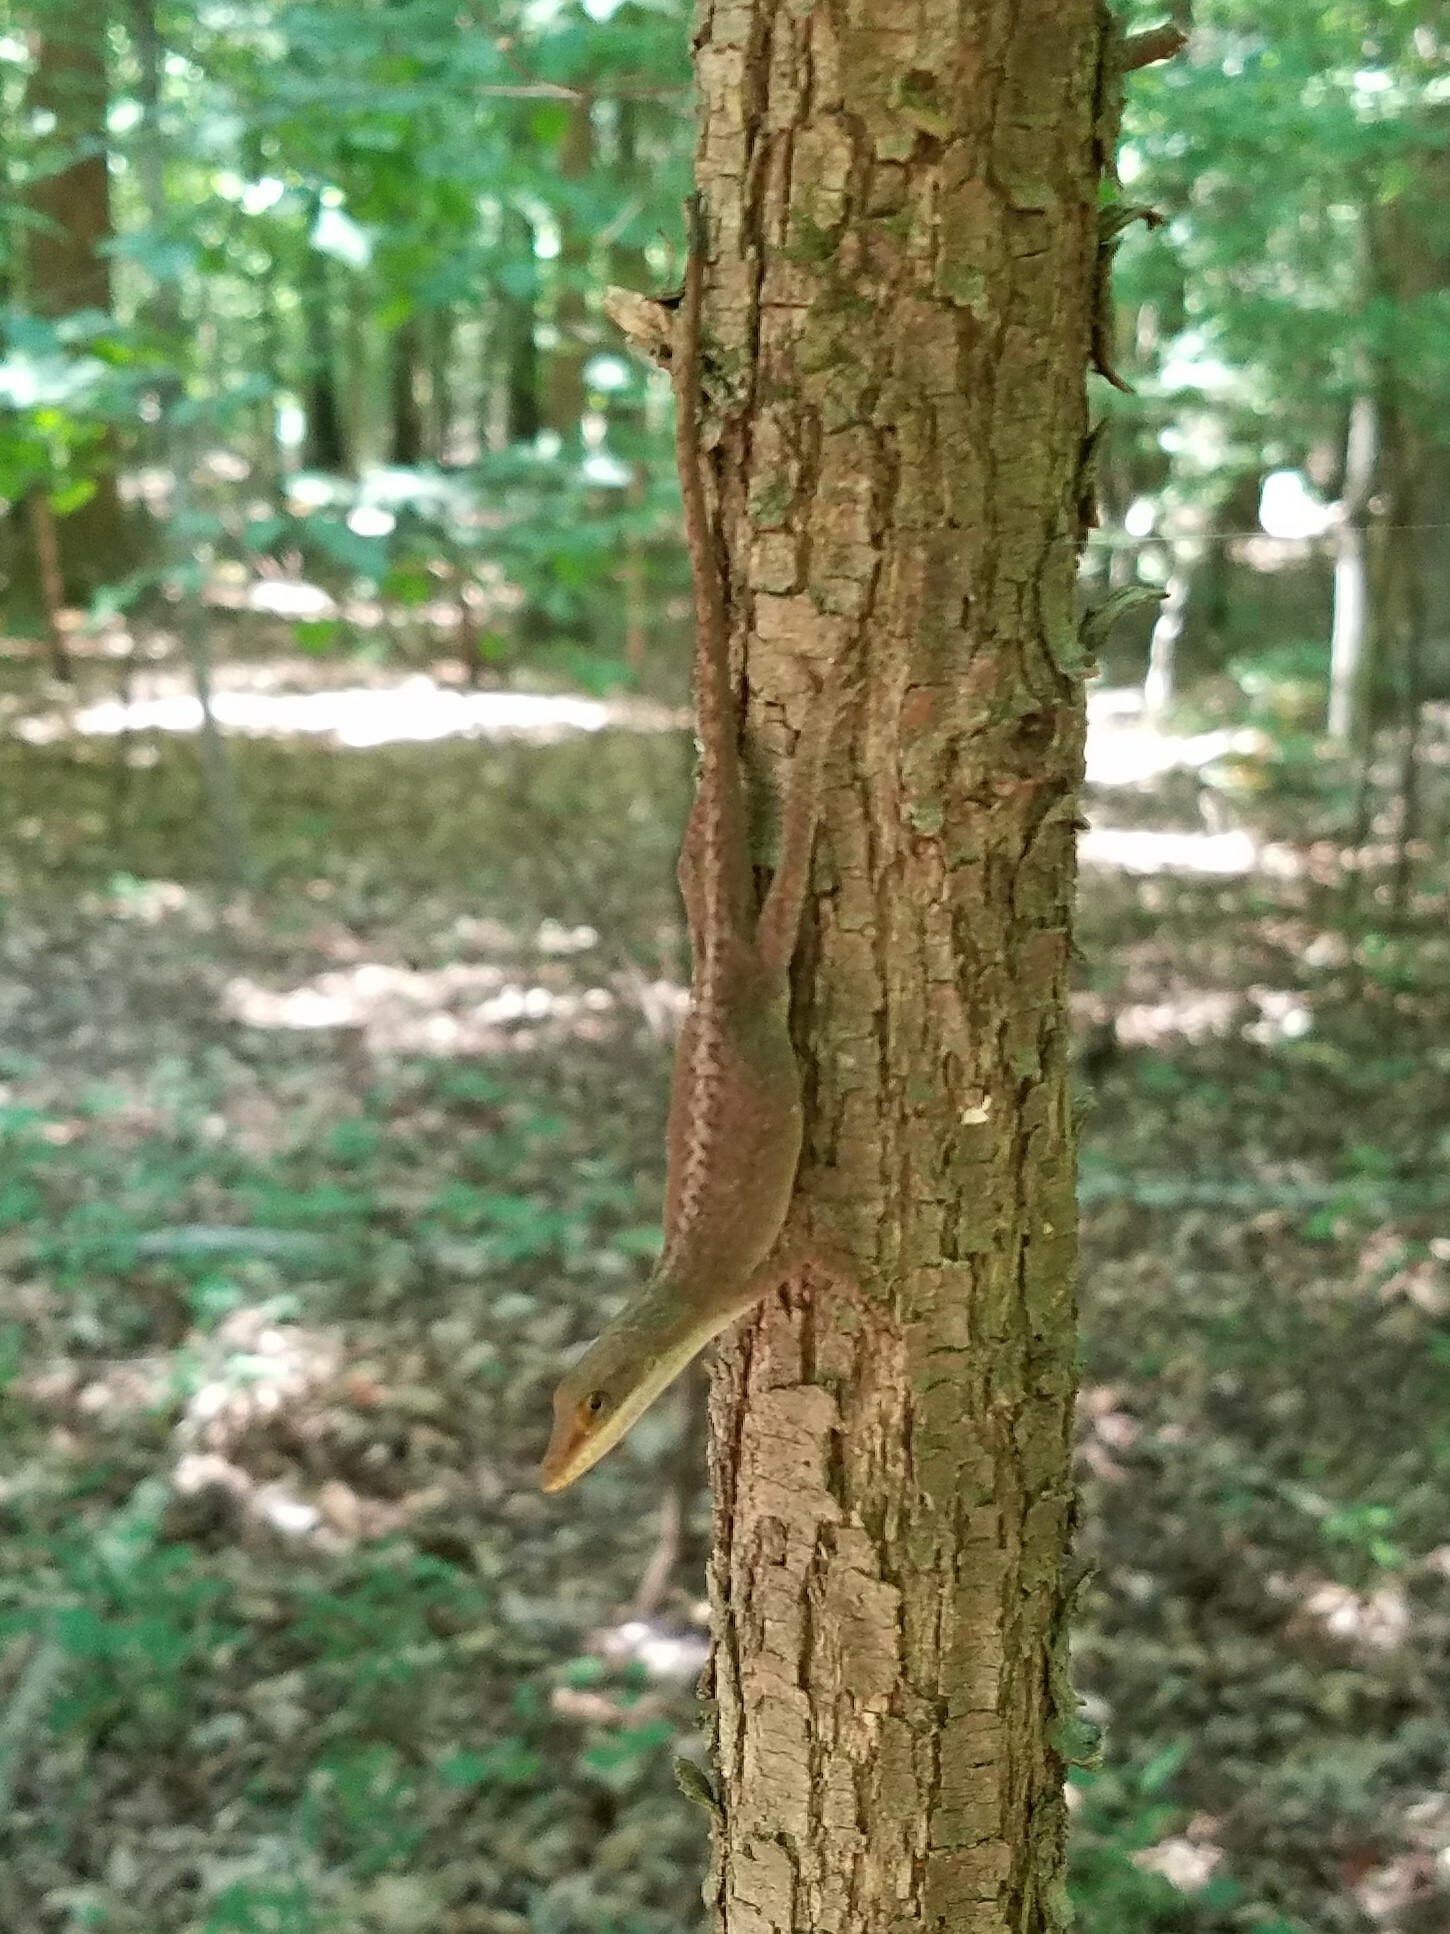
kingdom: Animalia
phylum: Chordata
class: Squamata
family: Dactyloidae
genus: Anolis
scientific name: Anolis carolinensis
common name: Green anole
